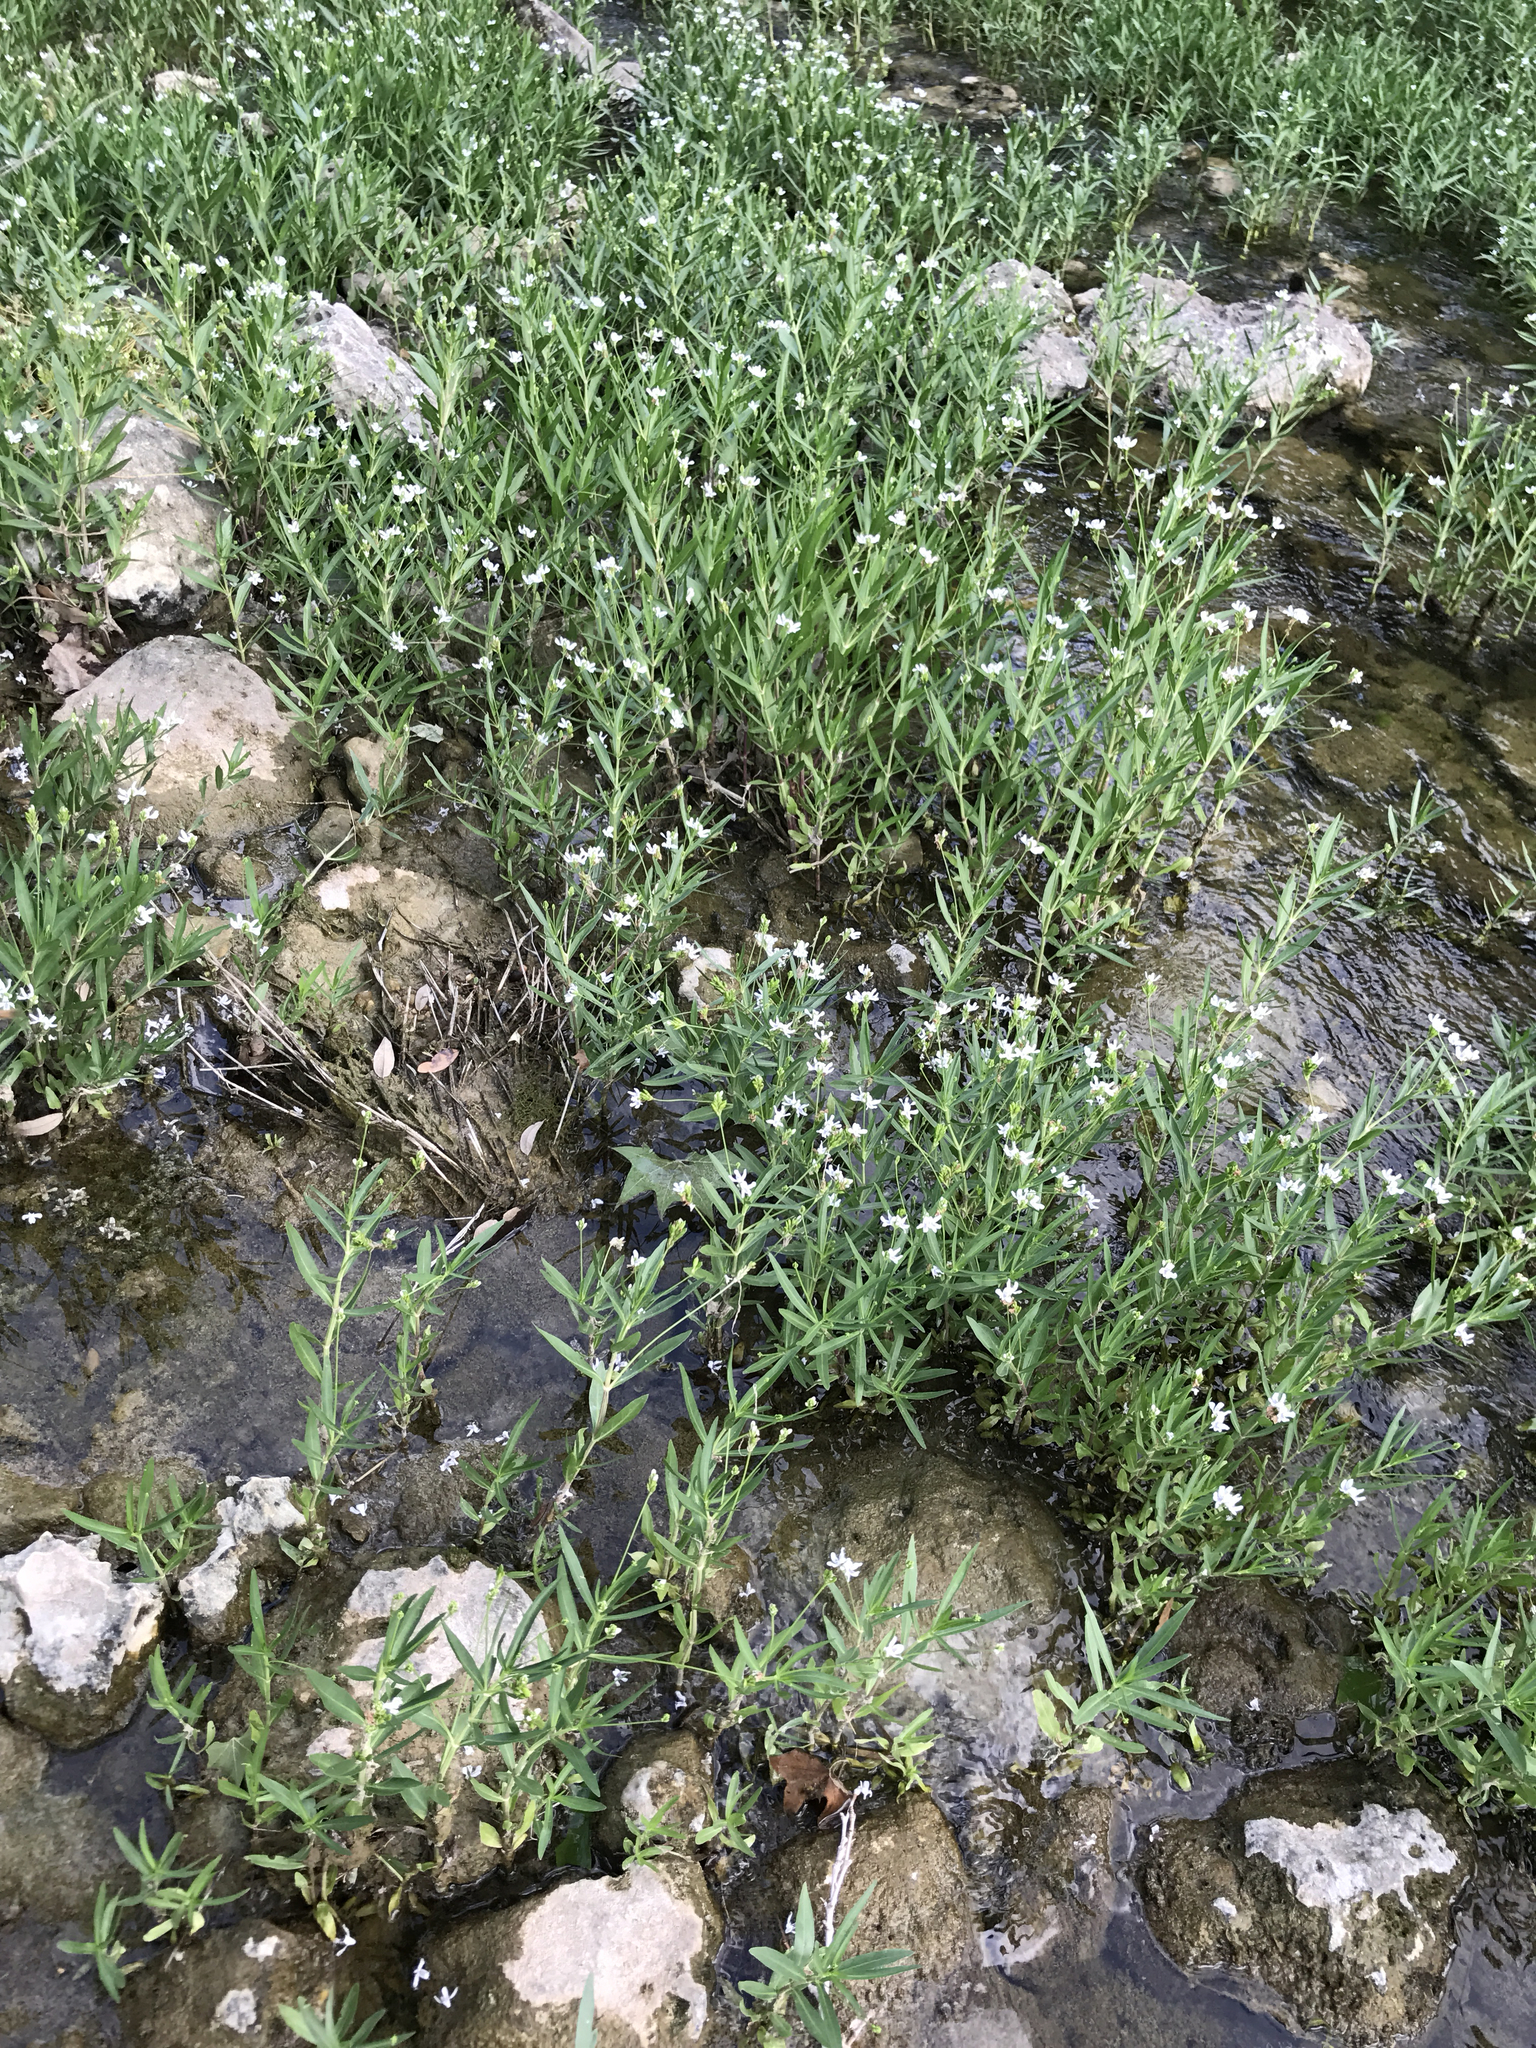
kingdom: Plantae
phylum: Tracheophyta
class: Magnoliopsida
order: Lamiales
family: Acanthaceae
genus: Dianthera
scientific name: Dianthera americana
